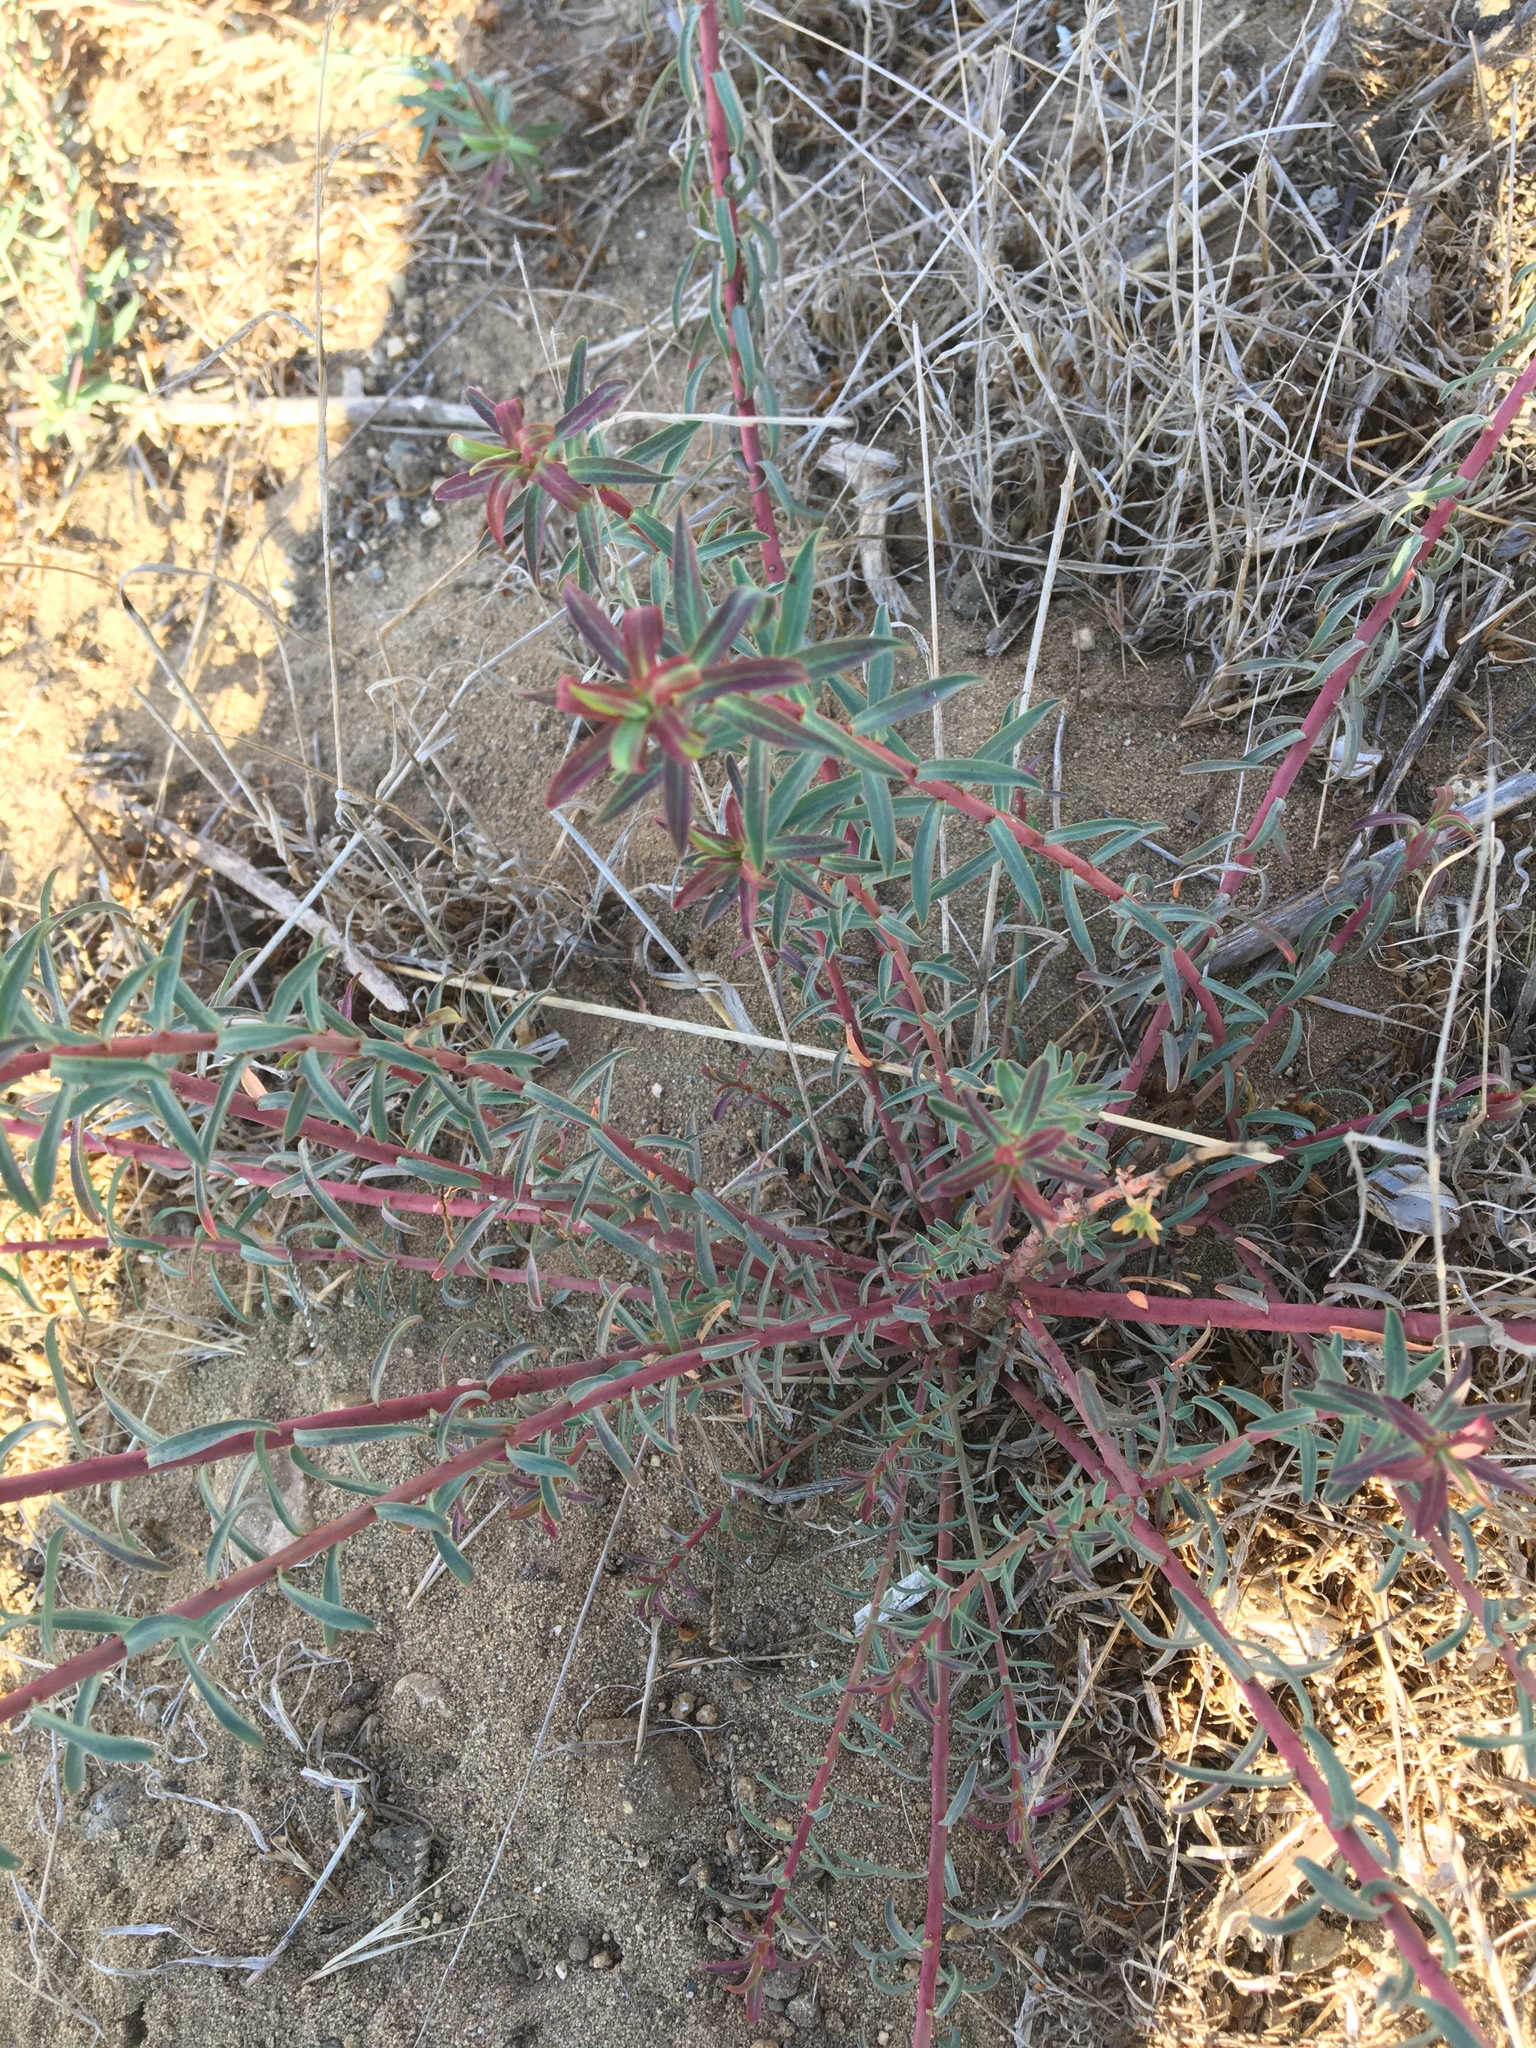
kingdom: Plantae
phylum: Tracheophyta
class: Magnoliopsida
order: Malpighiales
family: Euphorbiaceae
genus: Euphorbia
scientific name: Euphorbia terracina
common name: Geraldton carnation weed
